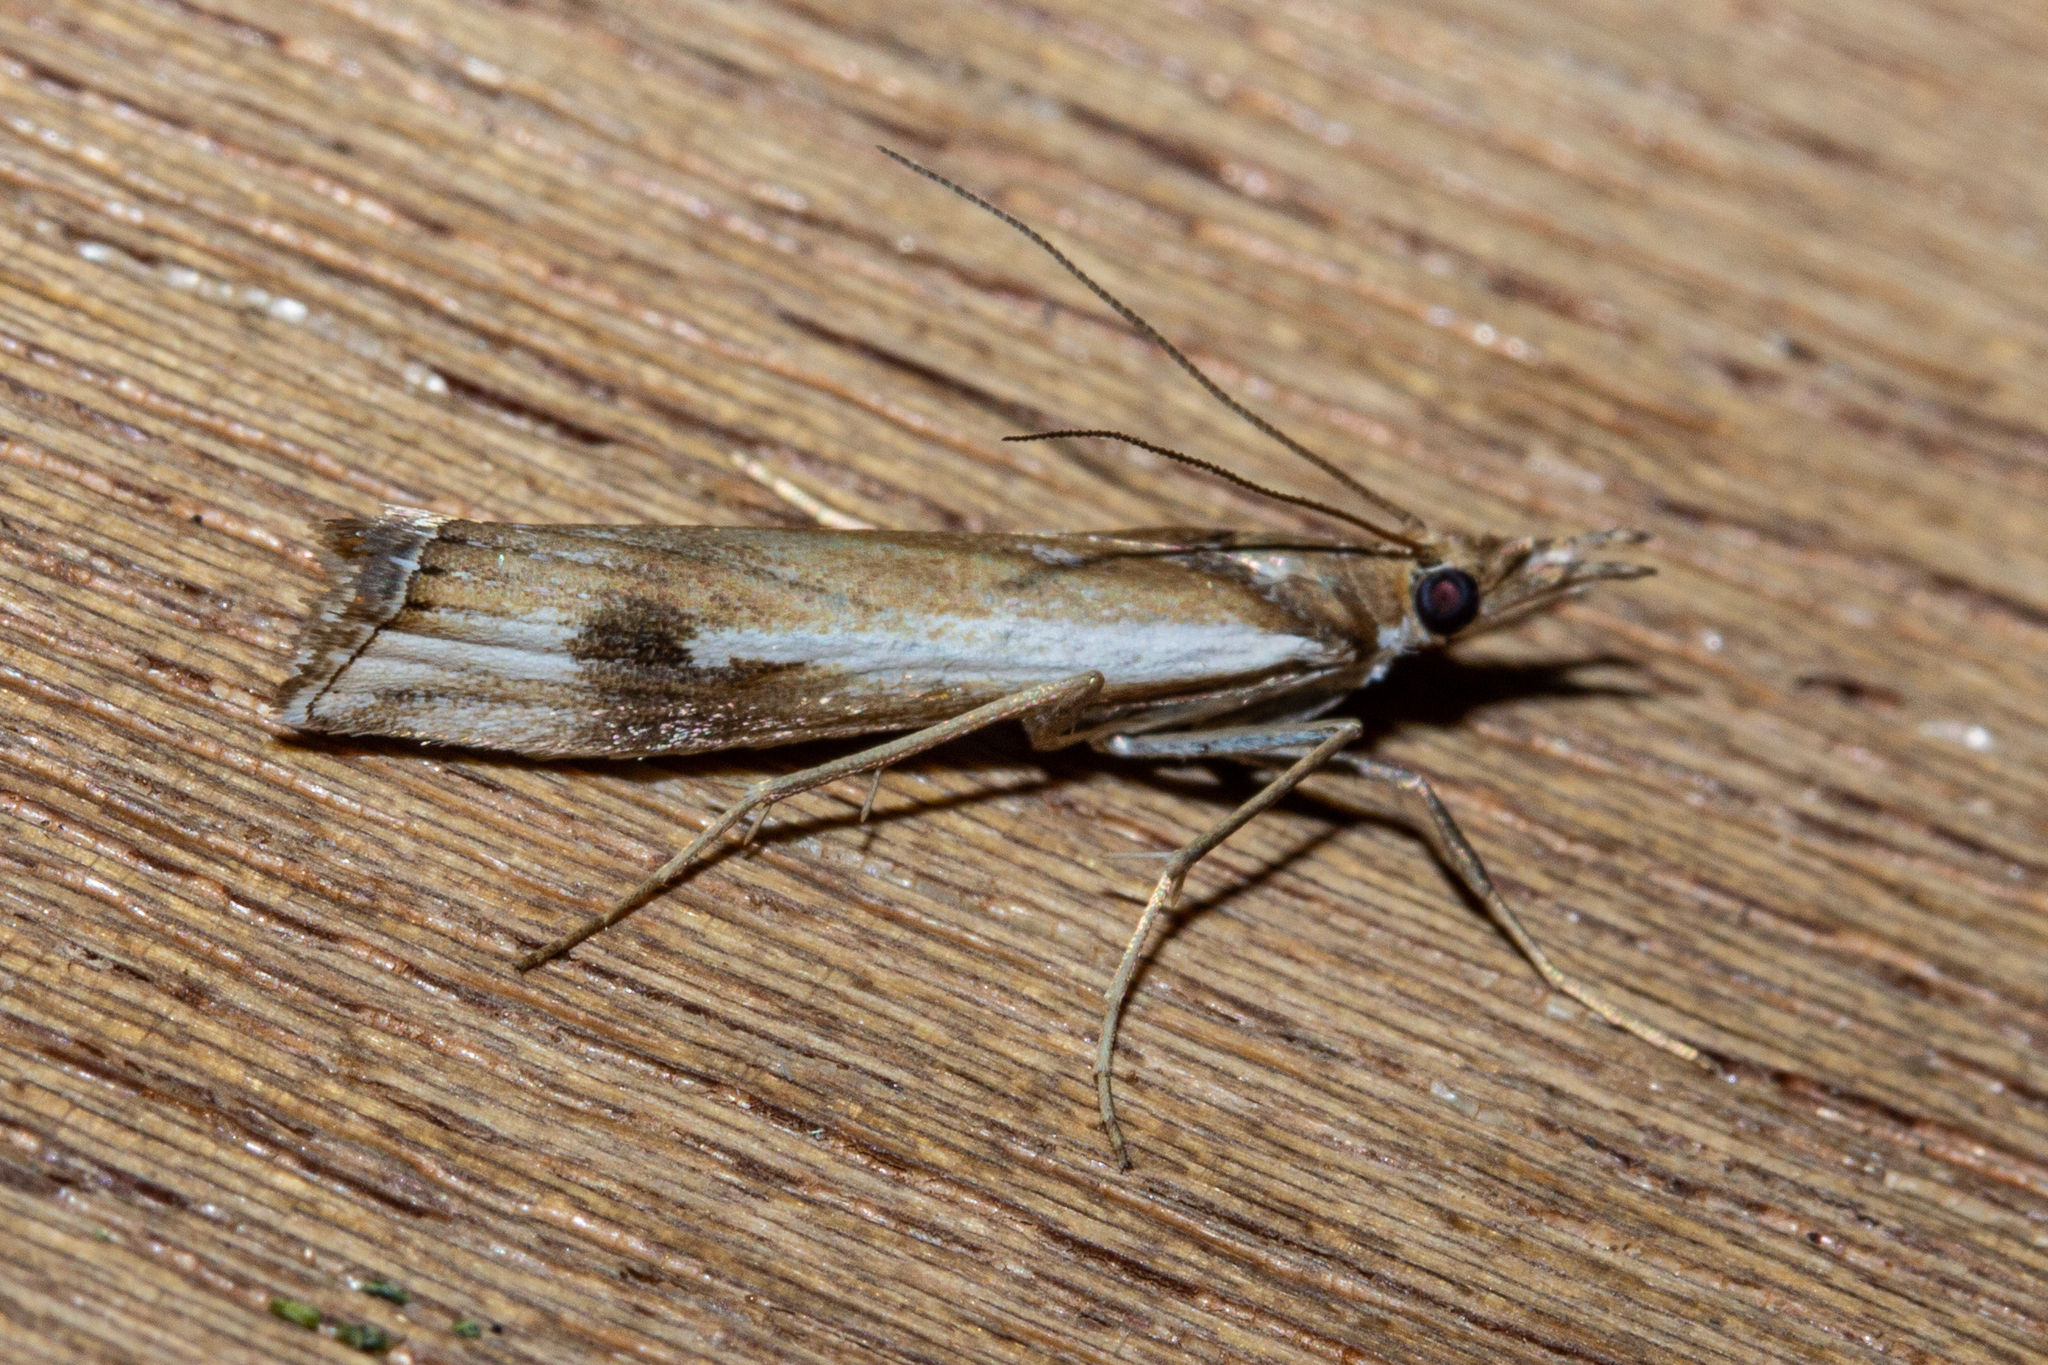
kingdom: Animalia
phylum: Arthropoda
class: Insecta
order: Lepidoptera
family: Crambidae
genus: Orocrambus
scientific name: Orocrambus vulgaris
